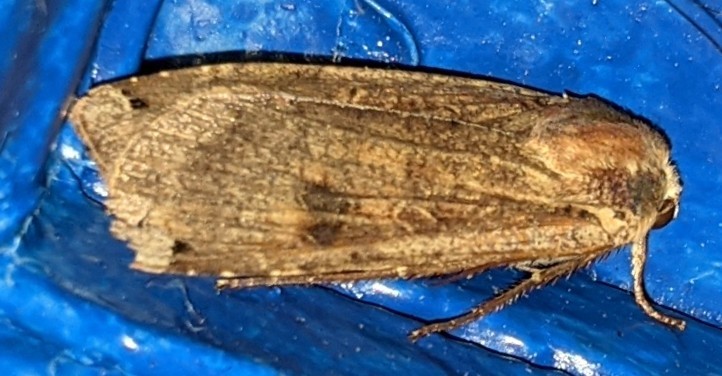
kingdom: Animalia
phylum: Arthropoda
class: Insecta
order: Lepidoptera
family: Noctuidae
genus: Noctua
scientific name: Noctua pronuba
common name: Large yellow underwing
